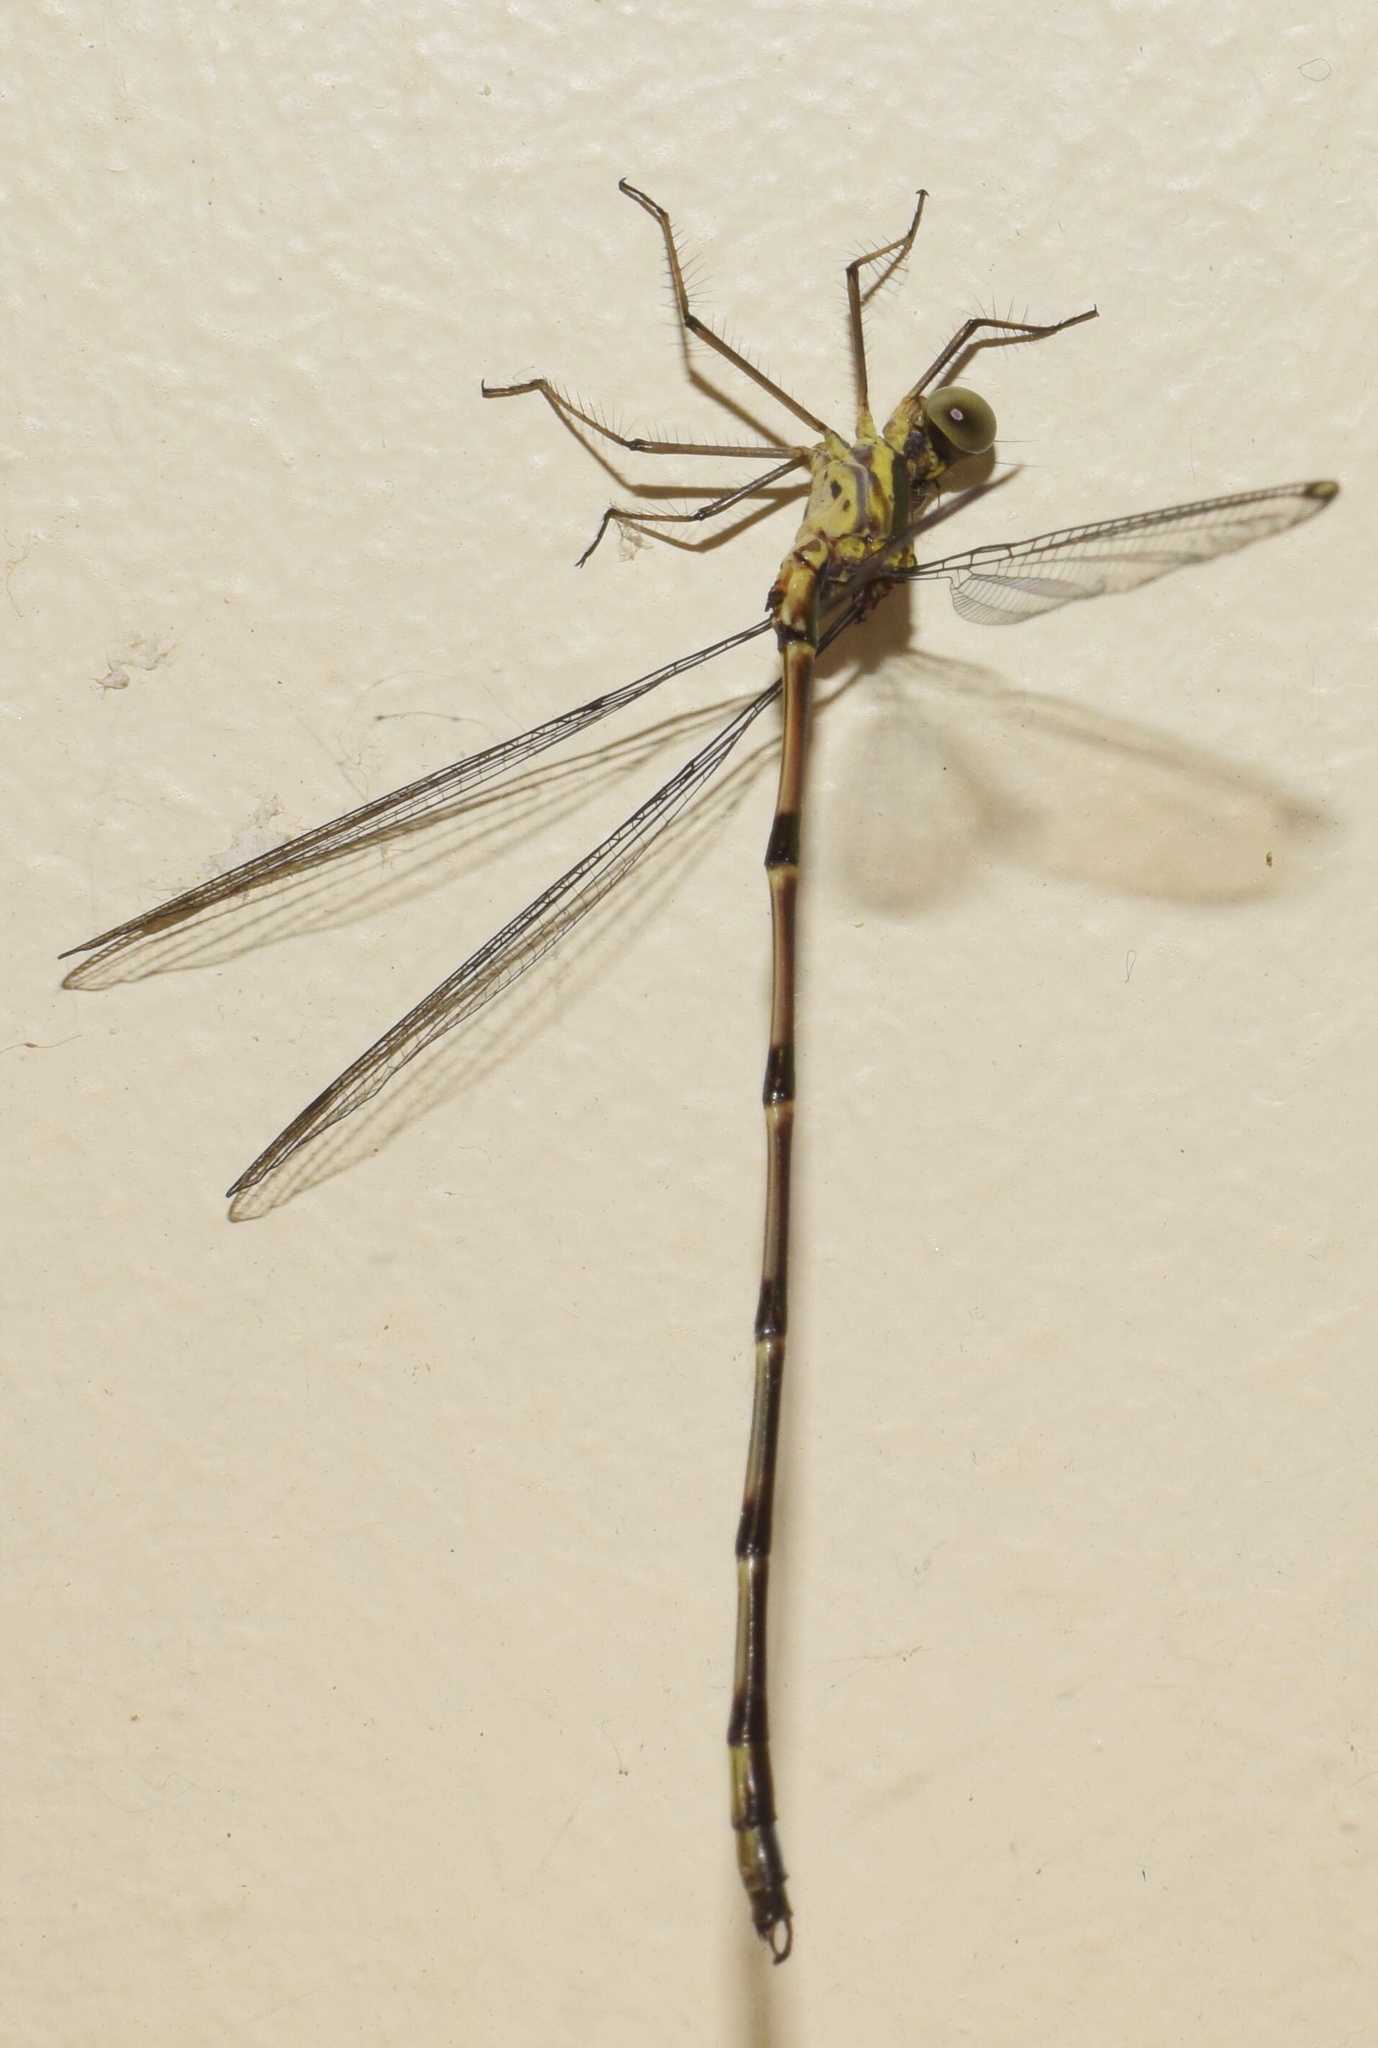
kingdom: Animalia
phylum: Arthropoda
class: Insecta
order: Odonata
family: Synlestidae
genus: Chlorolestes
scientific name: Chlorolestes tessellatus
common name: Forest malachite
